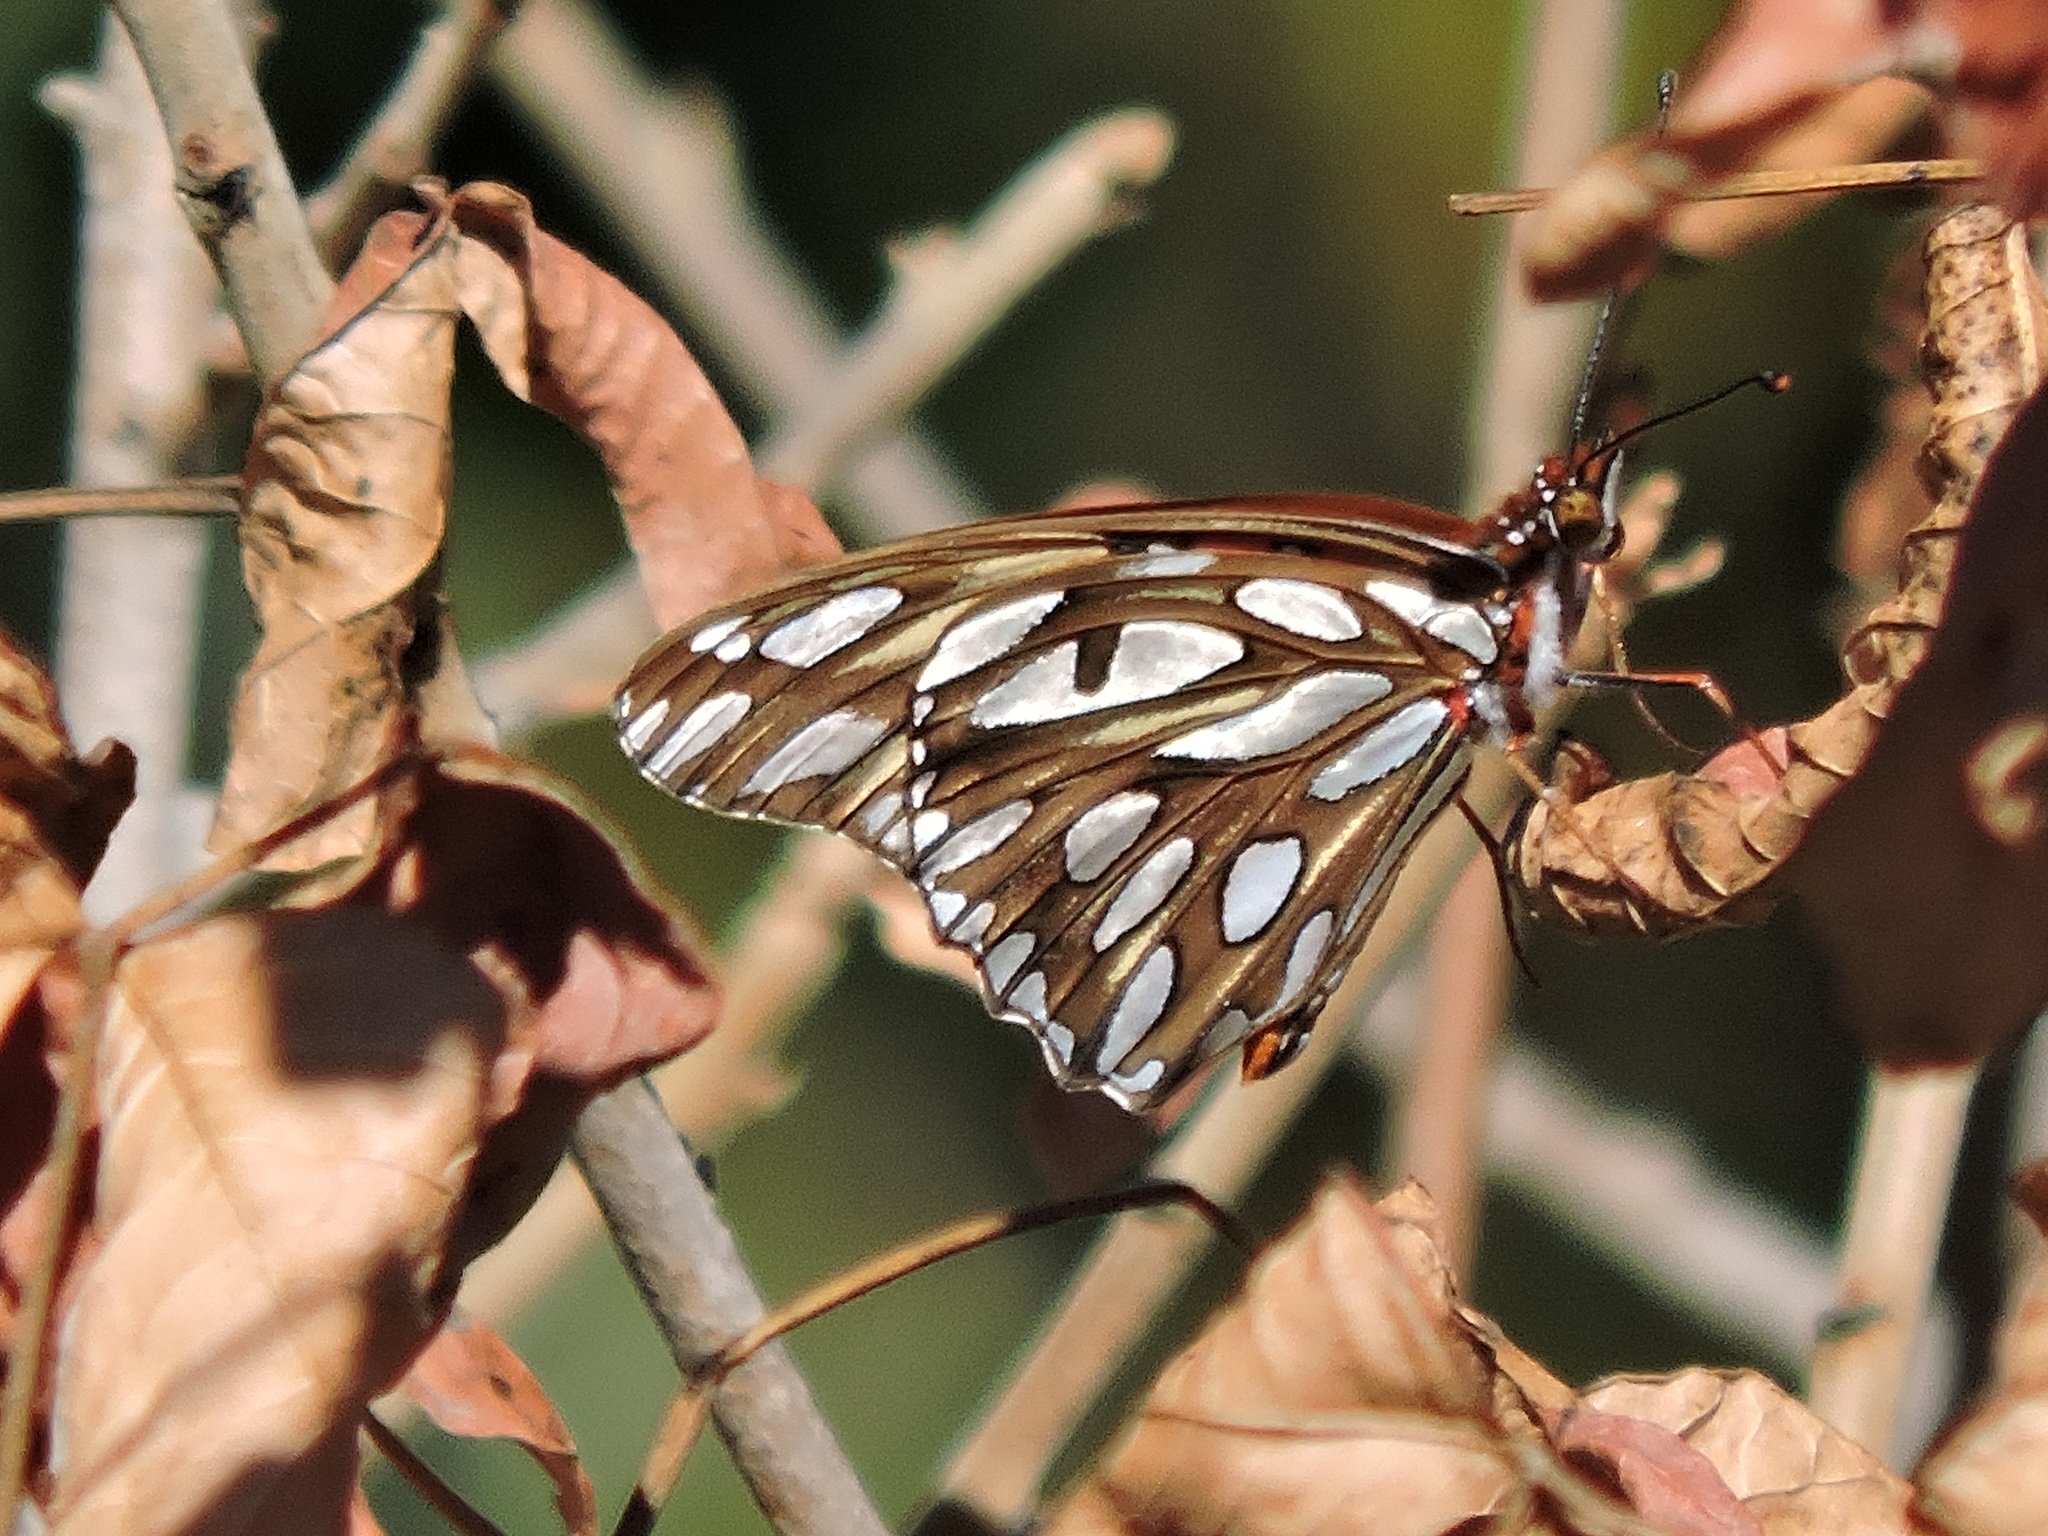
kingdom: Animalia
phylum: Arthropoda
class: Insecta
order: Lepidoptera
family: Nymphalidae
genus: Dione
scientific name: Dione vanillae
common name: Gulf fritillary
